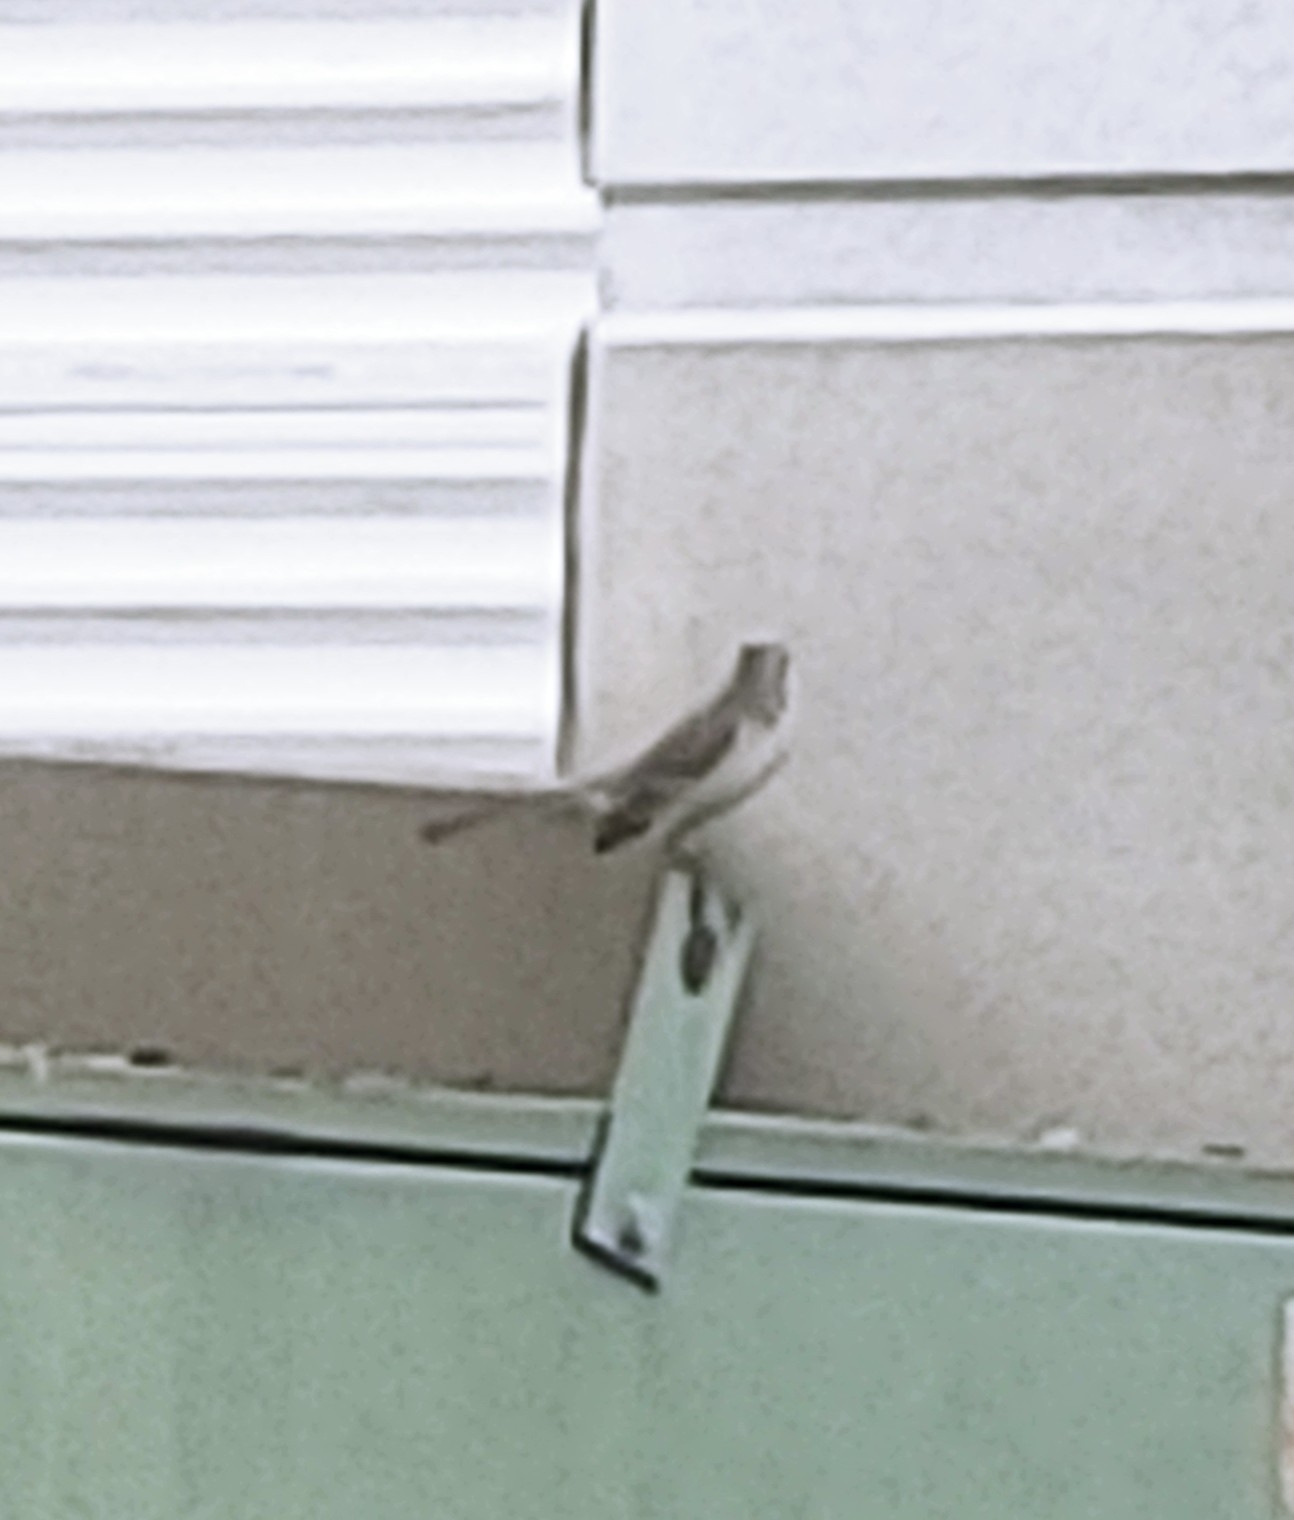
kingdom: Animalia
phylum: Chordata
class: Aves
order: Passeriformes
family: Mimidae
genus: Mimus
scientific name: Mimus polyglottos
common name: Northern mockingbird
